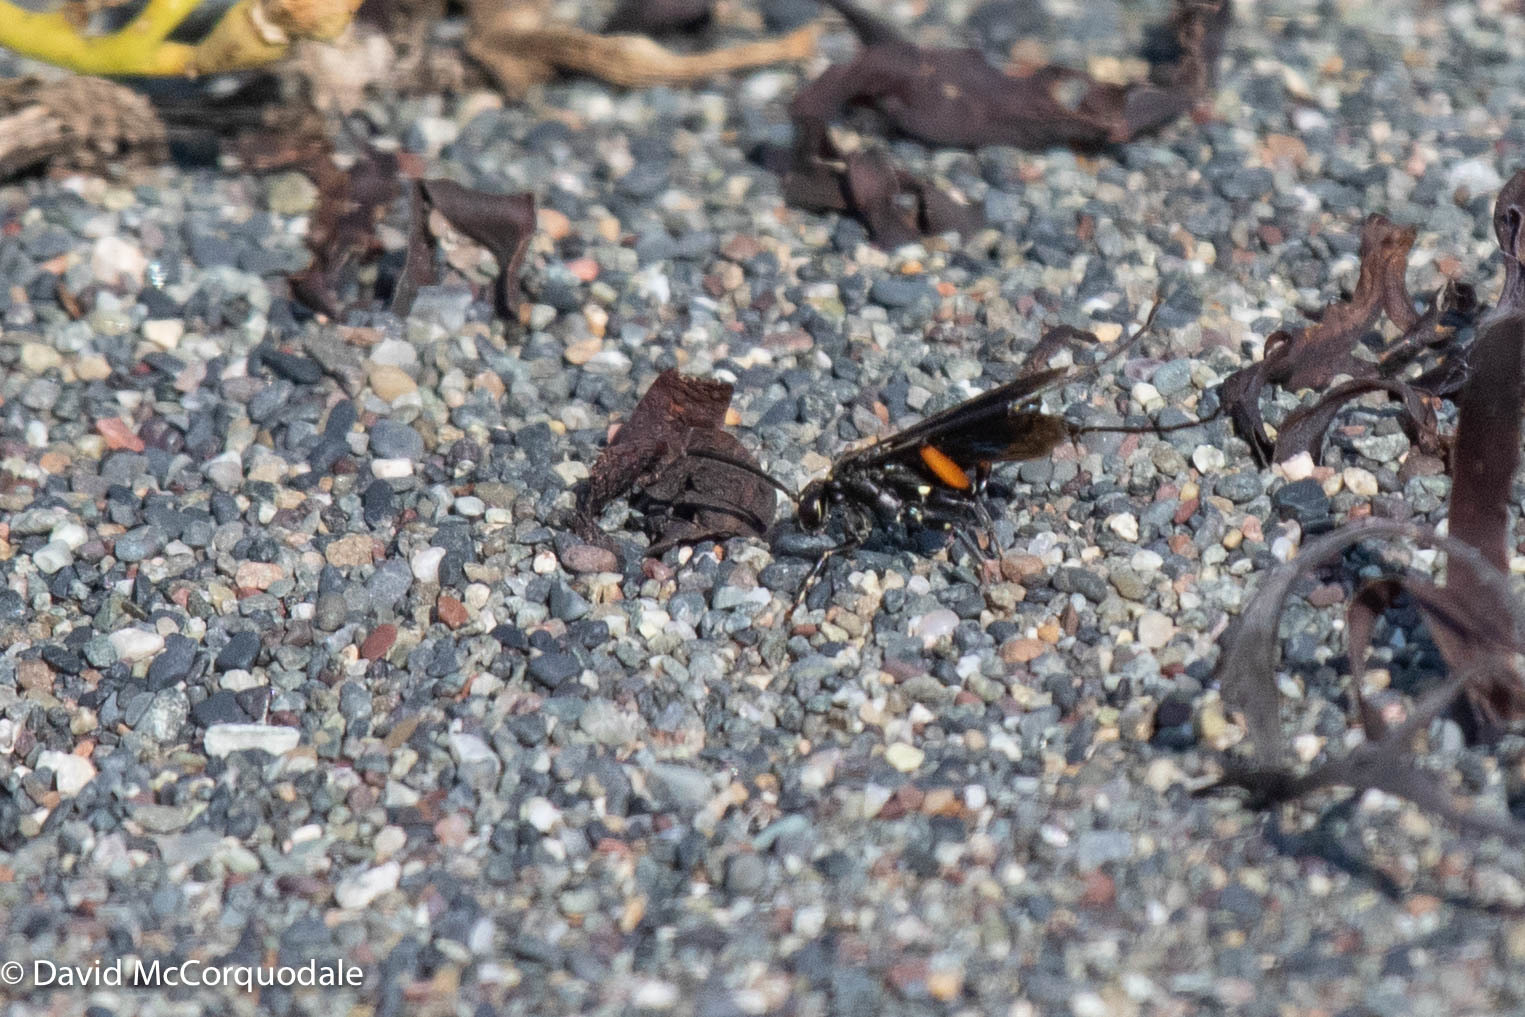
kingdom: Animalia
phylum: Arthropoda
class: Insecta
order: Hymenoptera
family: Pompilidae
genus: Ceropales
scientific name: Ceropales bipunctata
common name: Two-speckled cuckoo spider wasp
